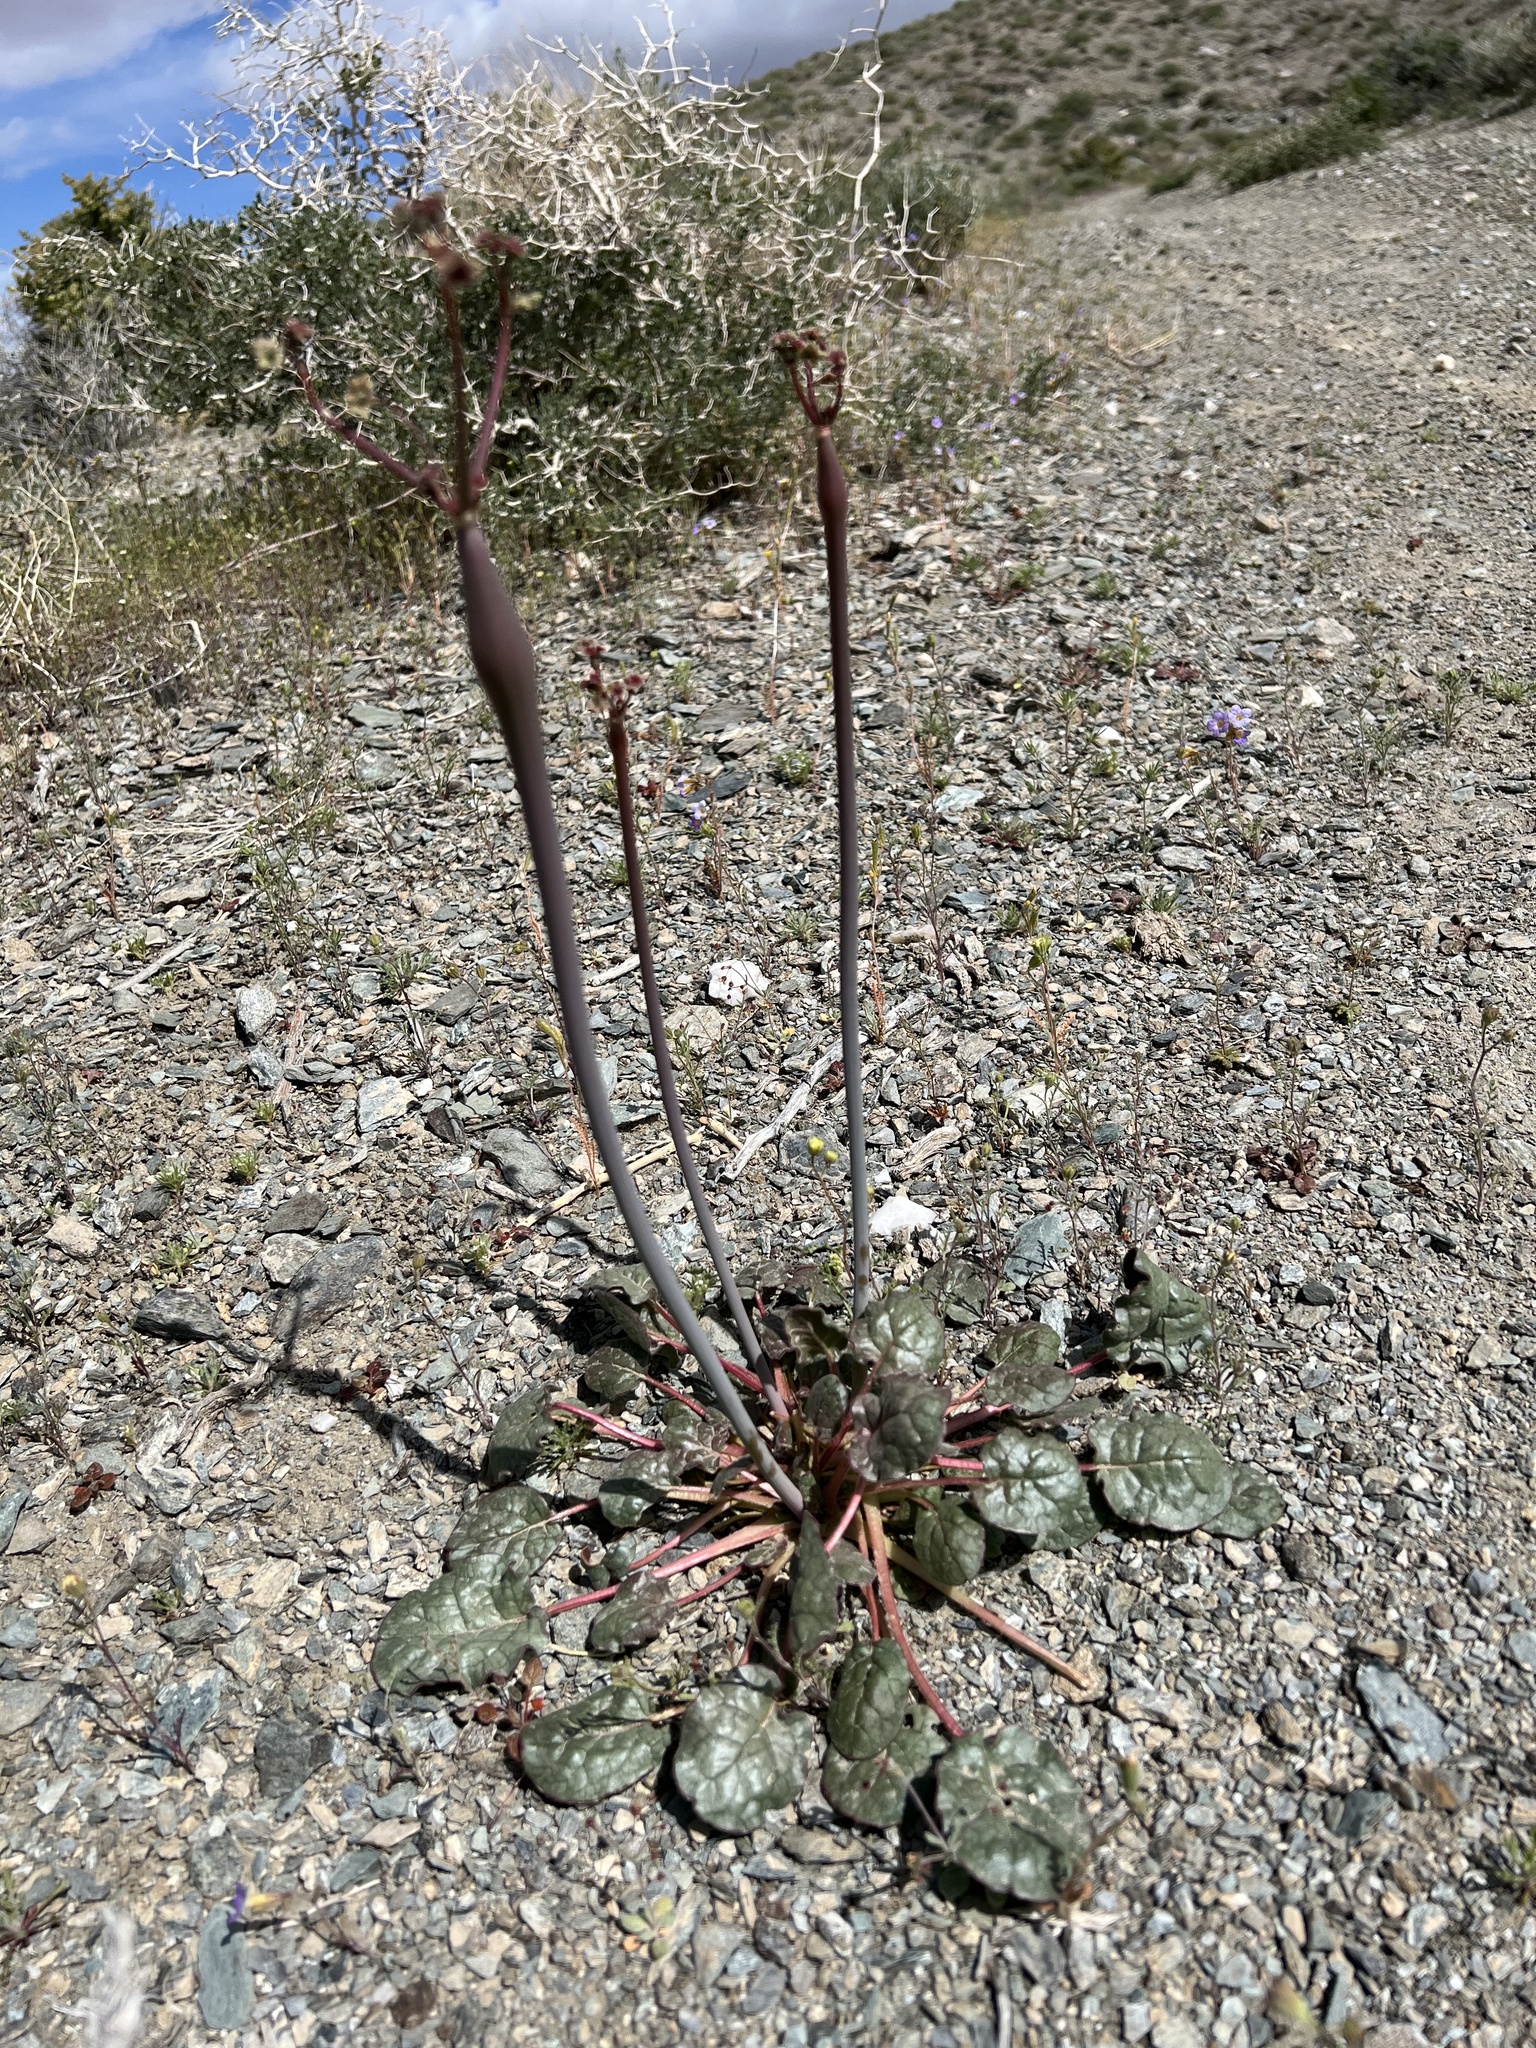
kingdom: Plantae
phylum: Tracheophyta
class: Magnoliopsida
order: Caryophyllales
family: Polygonaceae
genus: Eriogonum
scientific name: Eriogonum inflatum
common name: Desert trumpet
